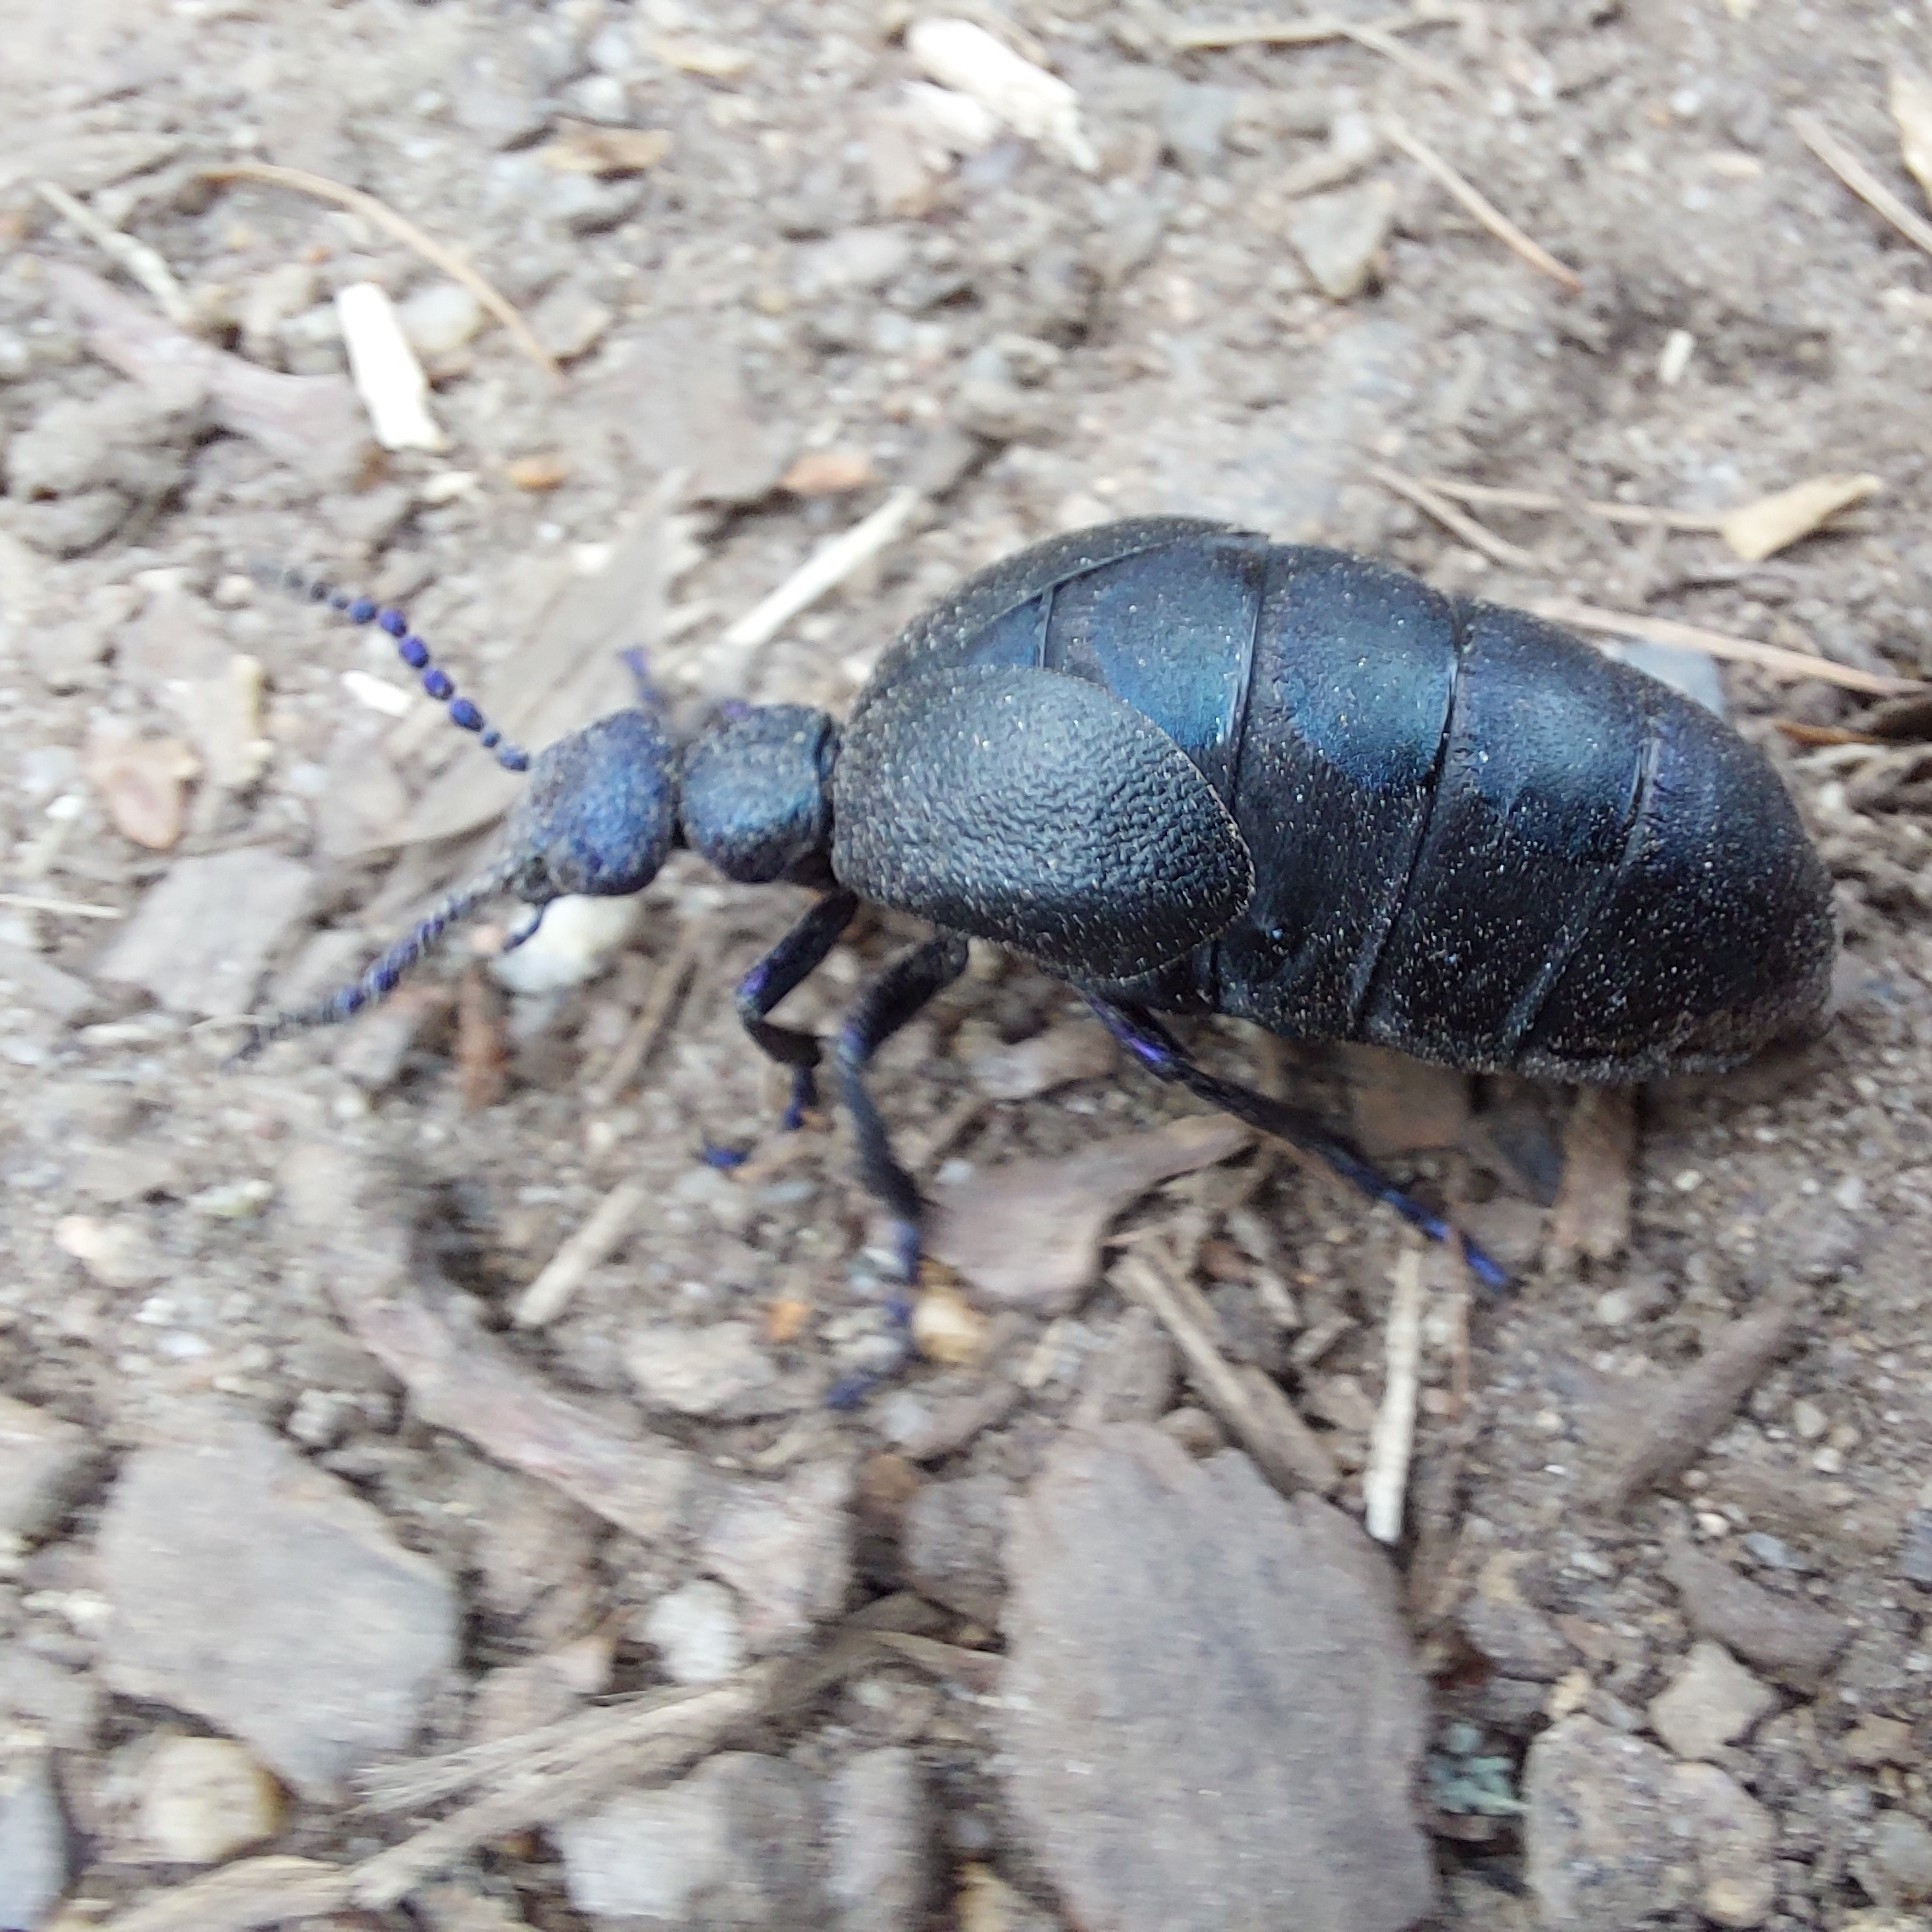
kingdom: Animalia
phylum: Arthropoda
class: Insecta
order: Coleoptera
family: Meloidae
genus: Meloe
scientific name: Meloe proscarabaeus
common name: Black oil-beetle
